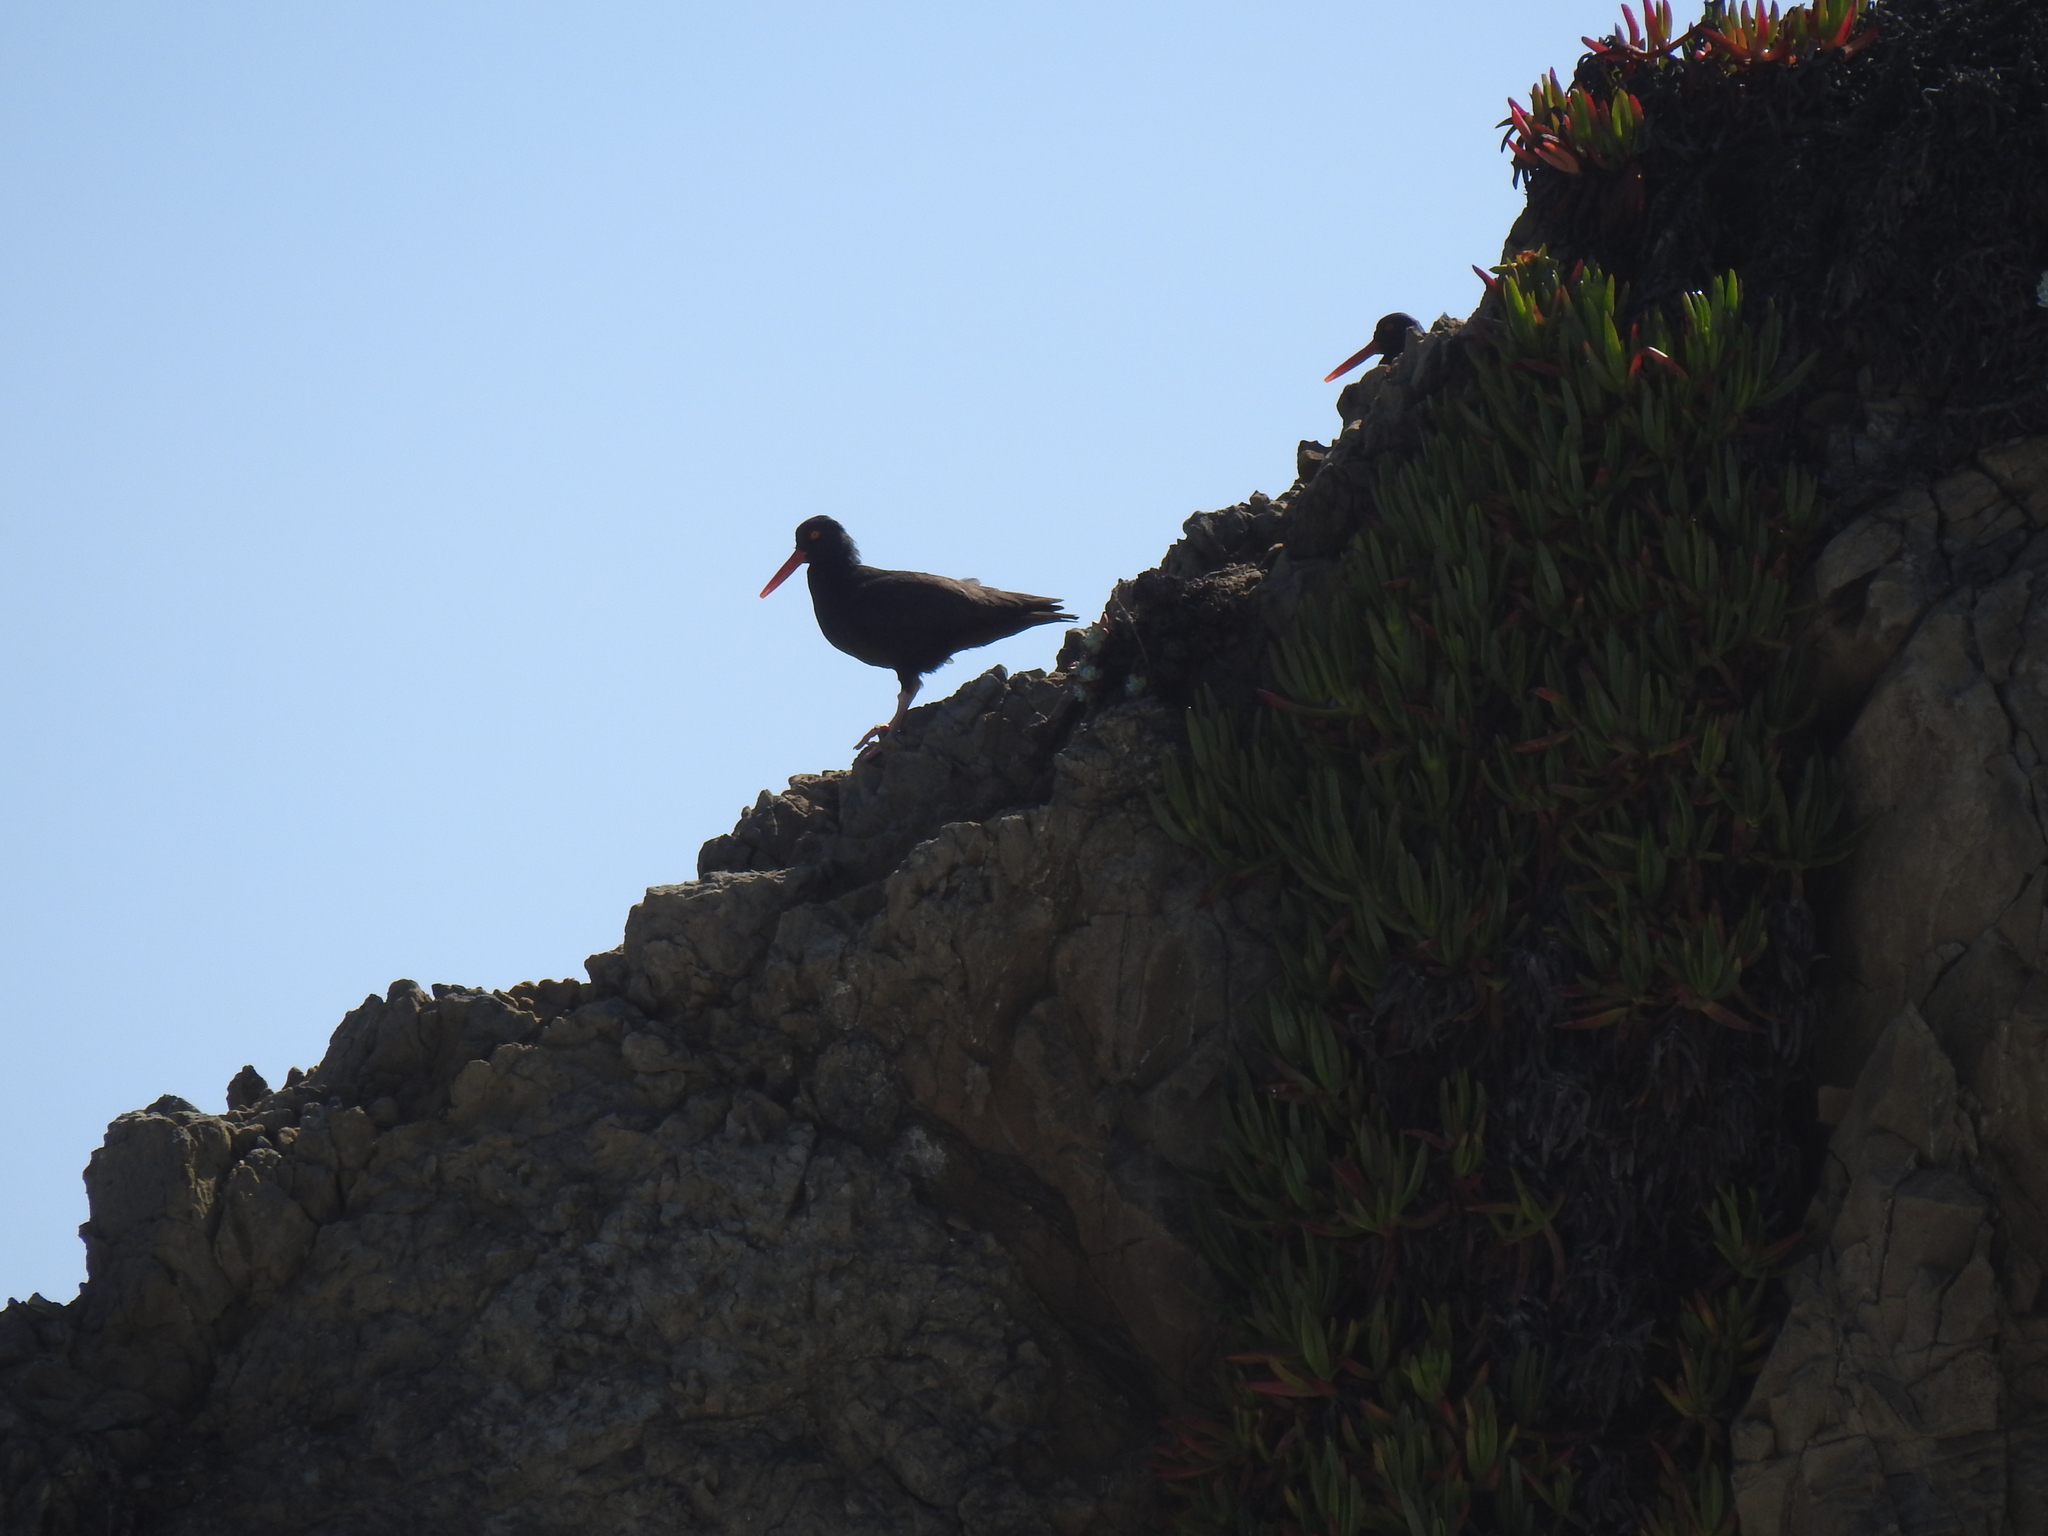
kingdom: Animalia
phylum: Chordata
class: Aves
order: Charadriiformes
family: Haematopodidae
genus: Haematopus
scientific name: Haematopus bachmani
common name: Black oystercatcher
